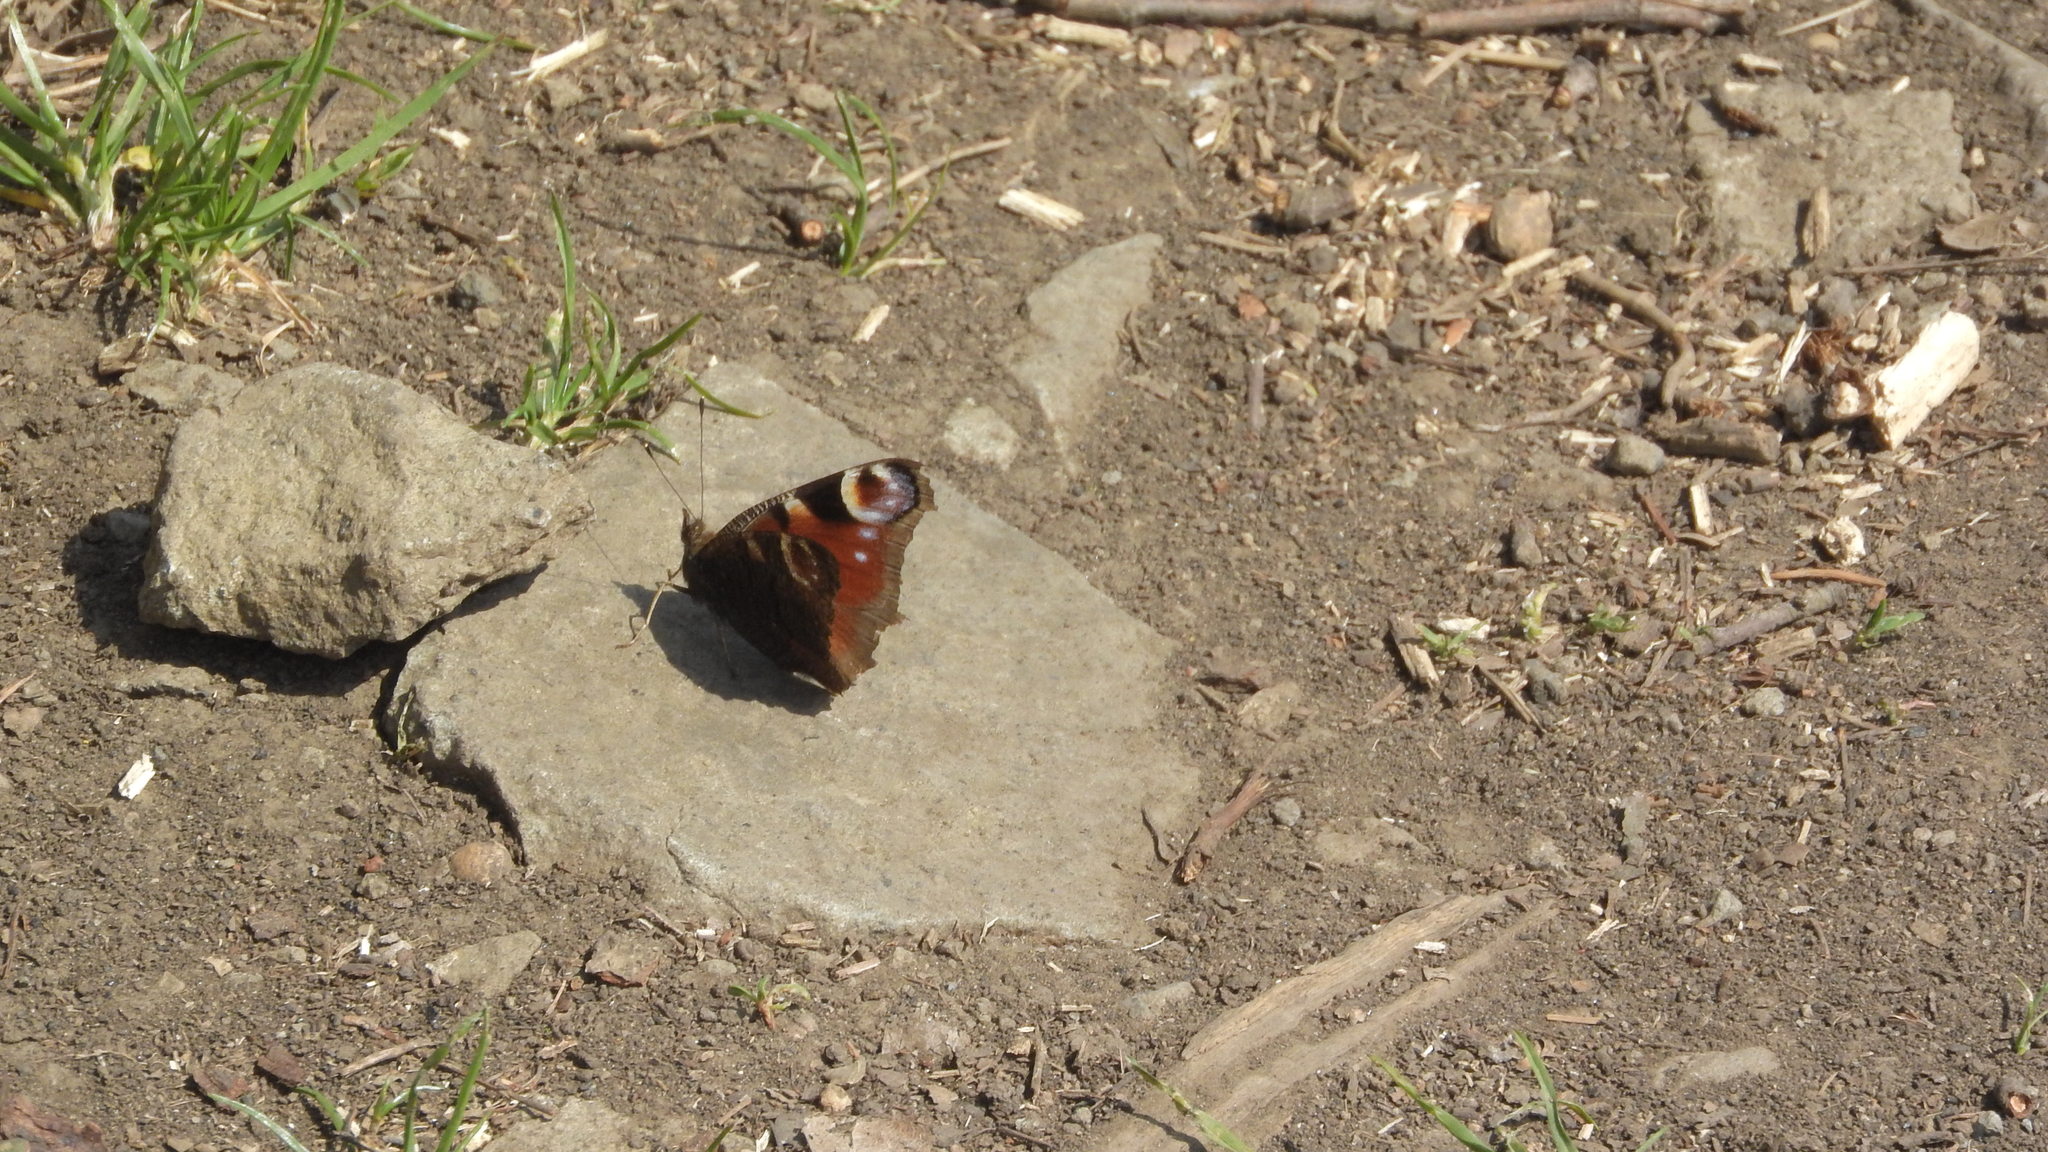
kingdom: Animalia
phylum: Arthropoda
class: Insecta
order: Lepidoptera
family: Nymphalidae
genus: Aglais
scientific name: Aglais io
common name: Peacock
